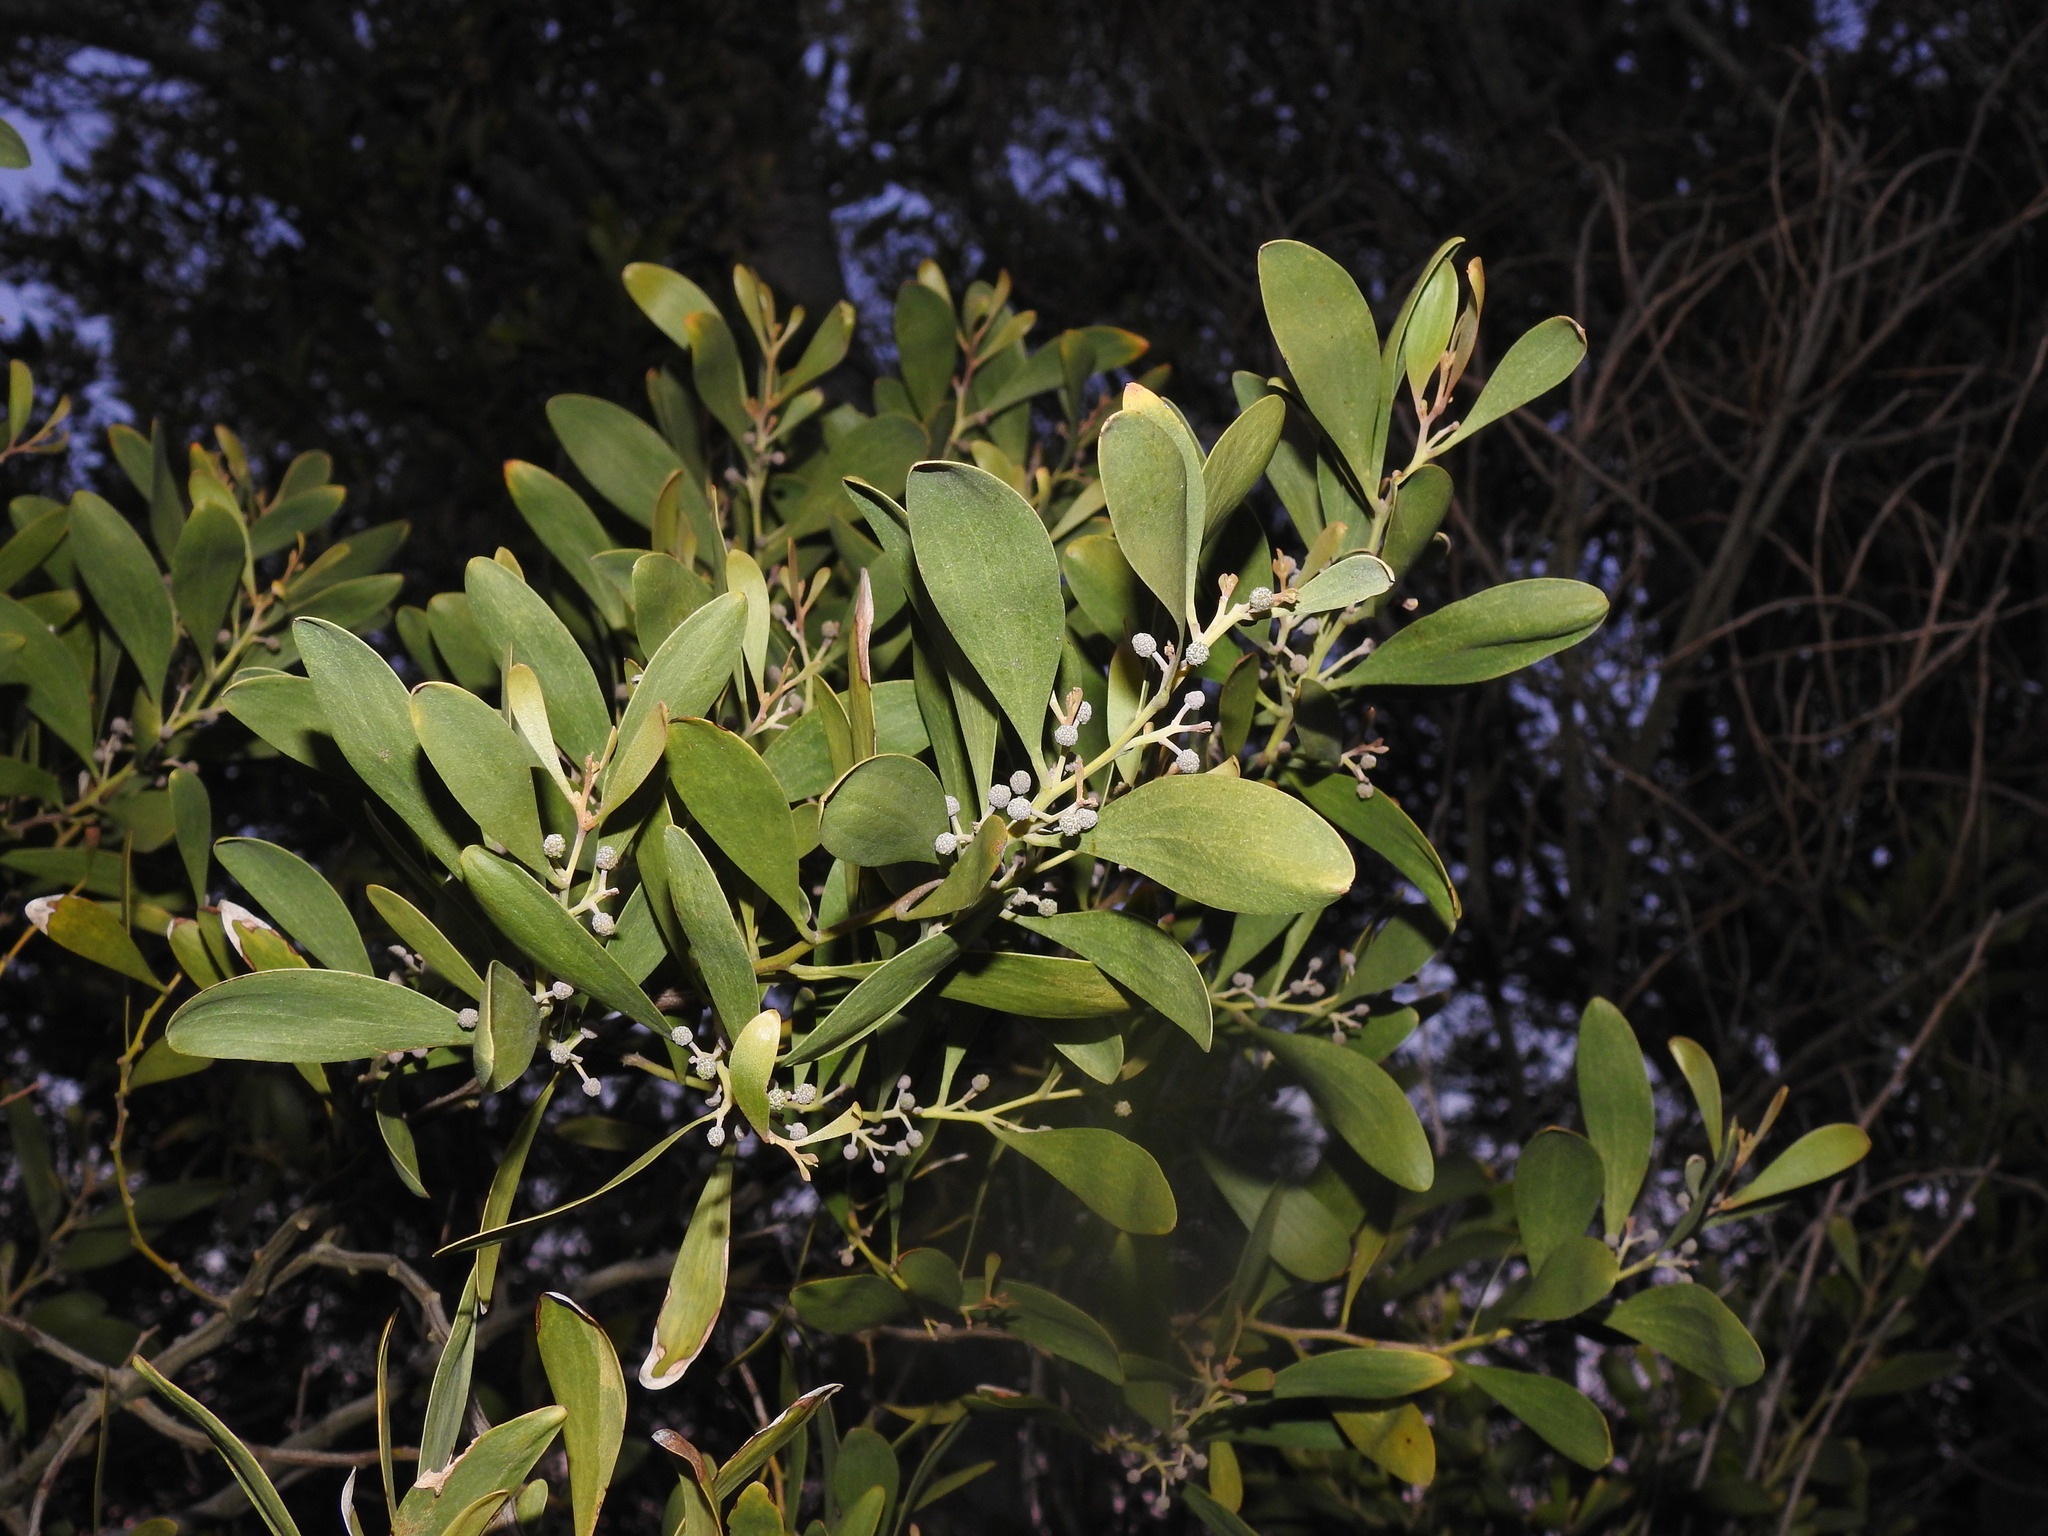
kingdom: Plantae
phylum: Tracheophyta
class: Magnoliopsida
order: Fabales
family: Fabaceae
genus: Acacia
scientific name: Acacia melanoxylon
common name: Blackwood
